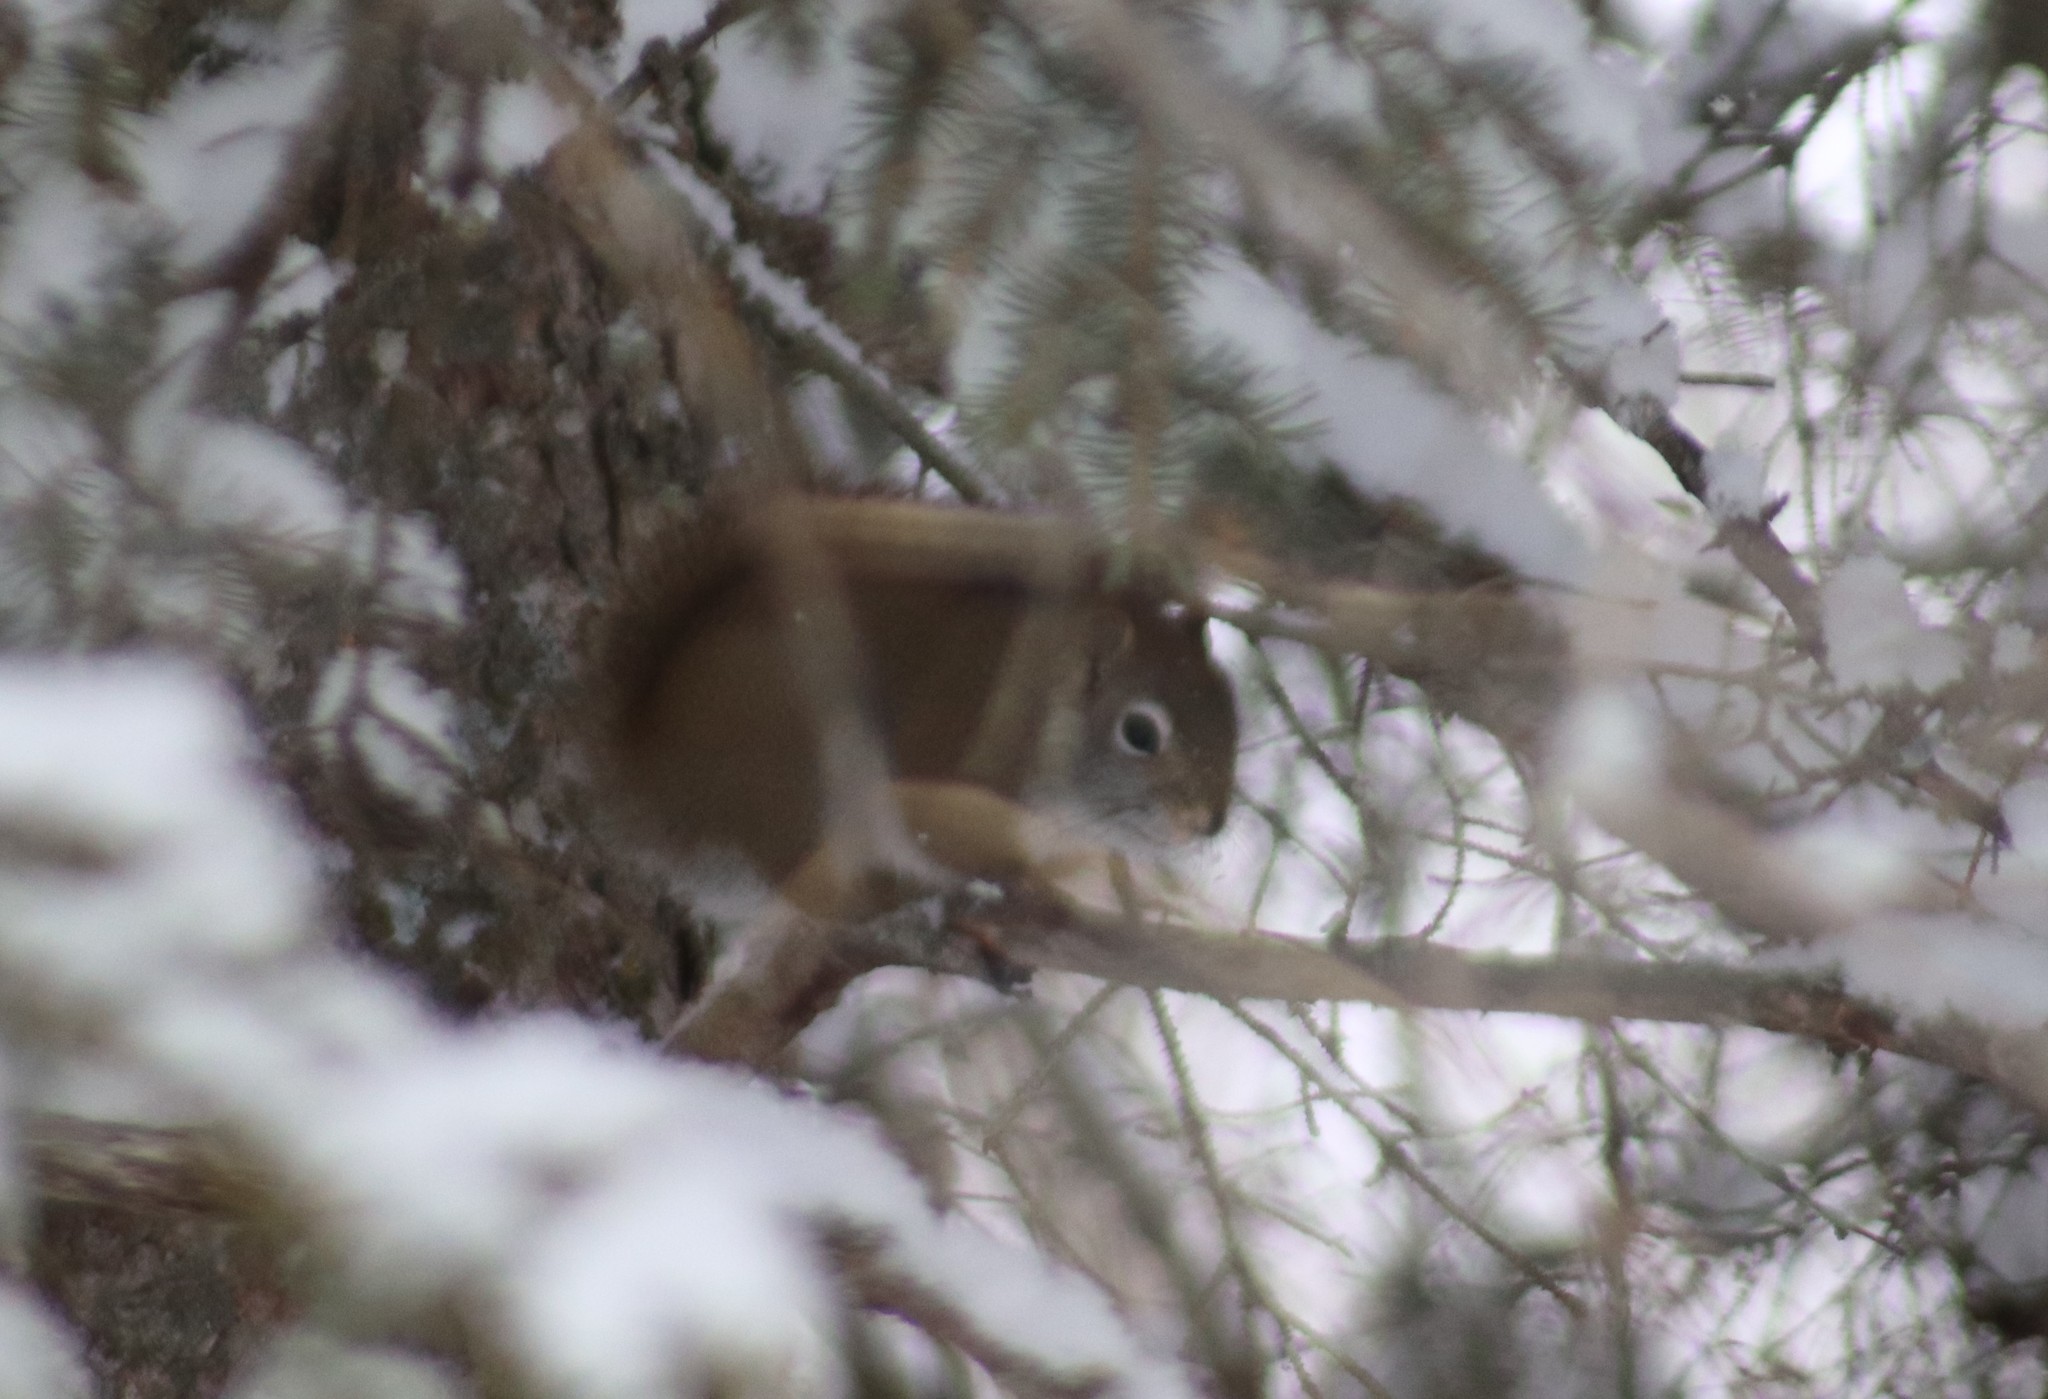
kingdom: Animalia
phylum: Chordata
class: Mammalia
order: Rodentia
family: Sciuridae
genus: Tamiasciurus
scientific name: Tamiasciurus hudsonicus
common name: Red squirrel
